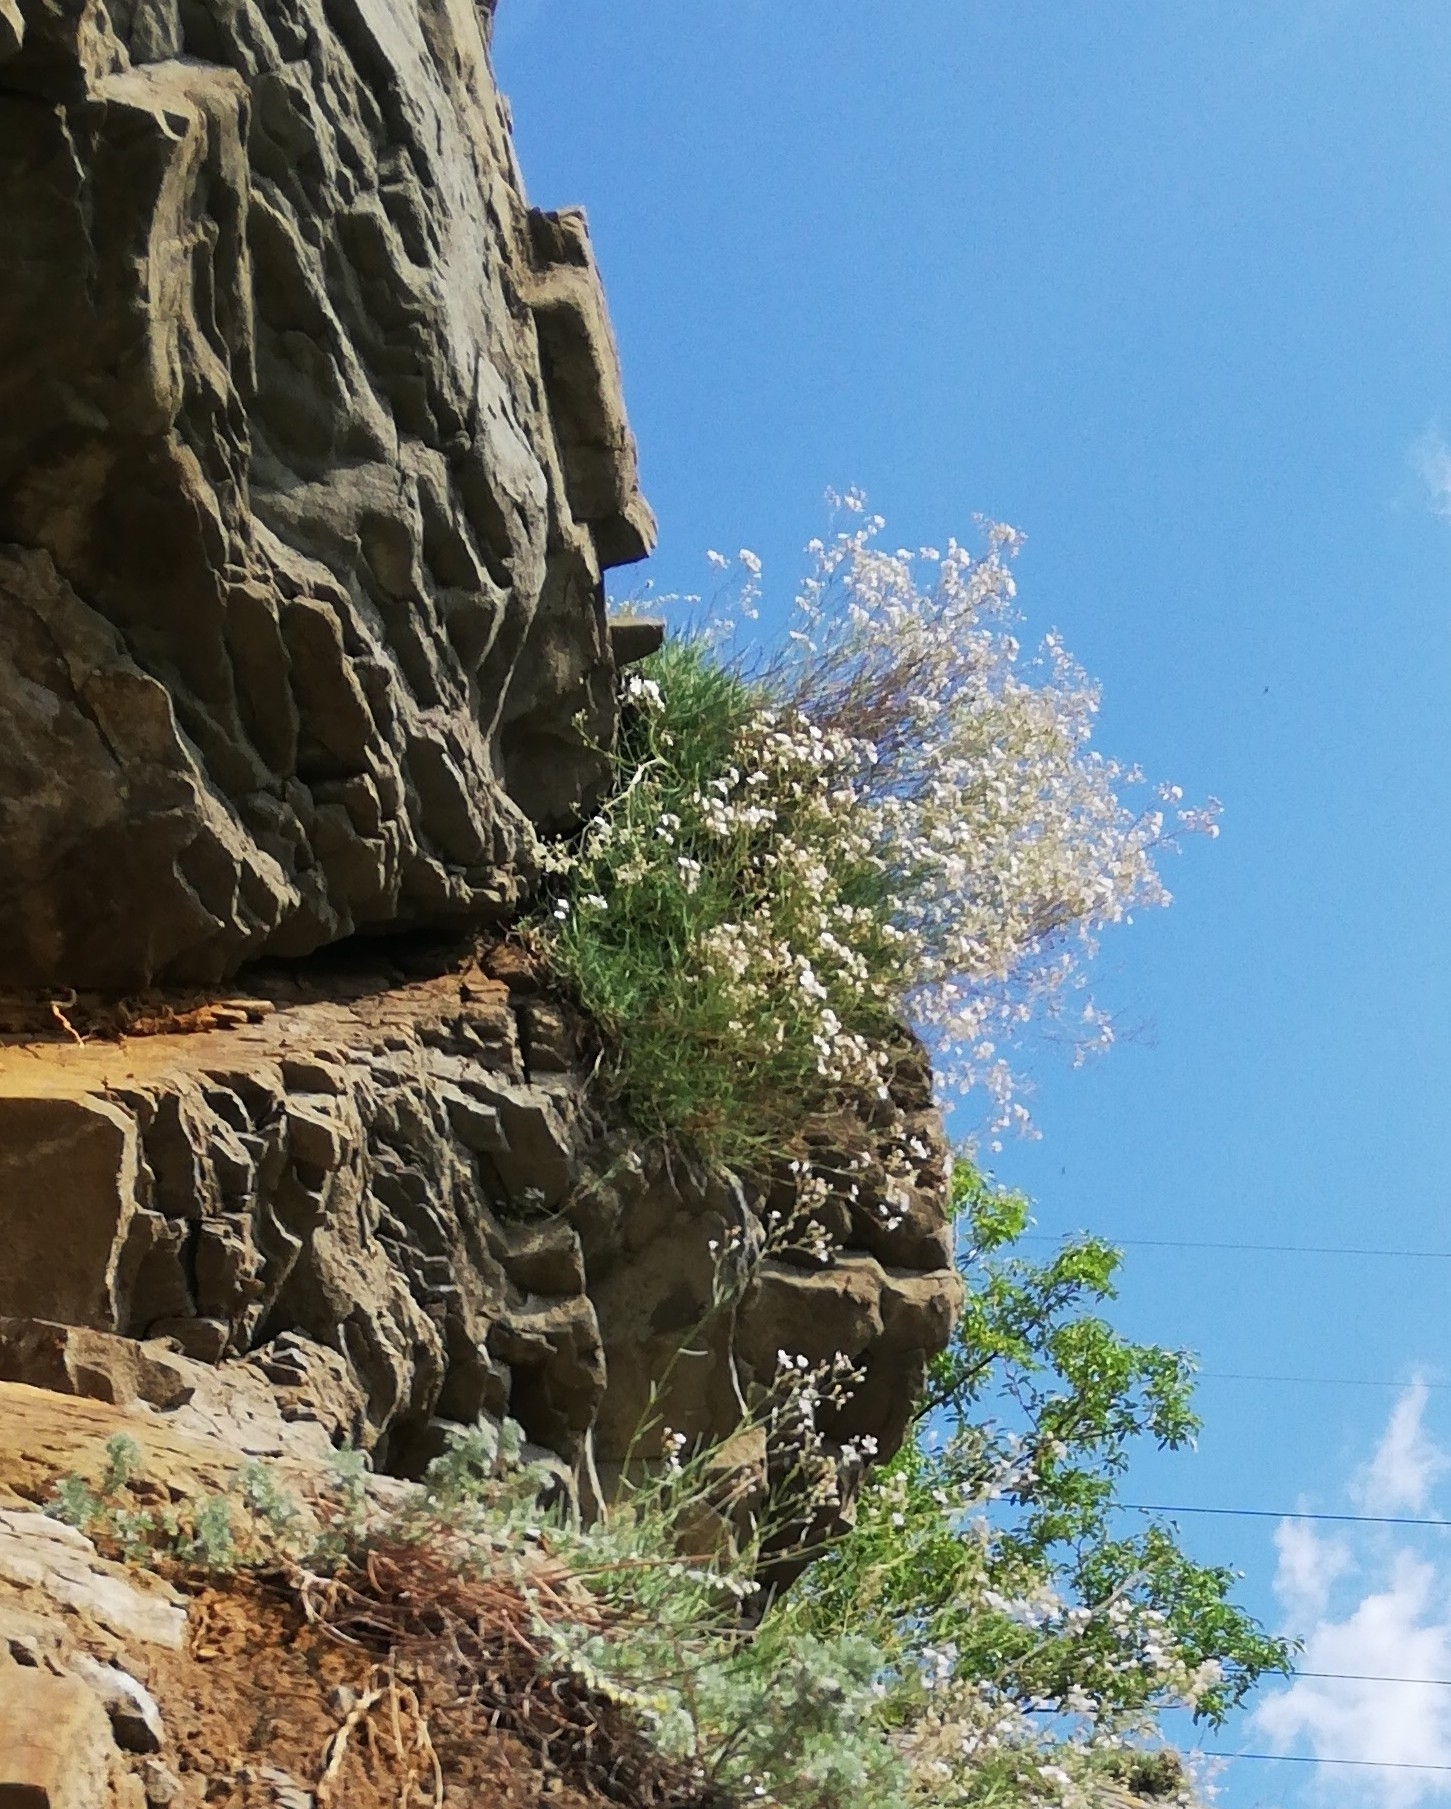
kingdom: Plantae
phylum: Tracheophyta
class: Magnoliopsida
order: Caryophyllales
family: Caryophyllaceae
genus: Gypsophila
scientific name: Gypsophila patrinii
